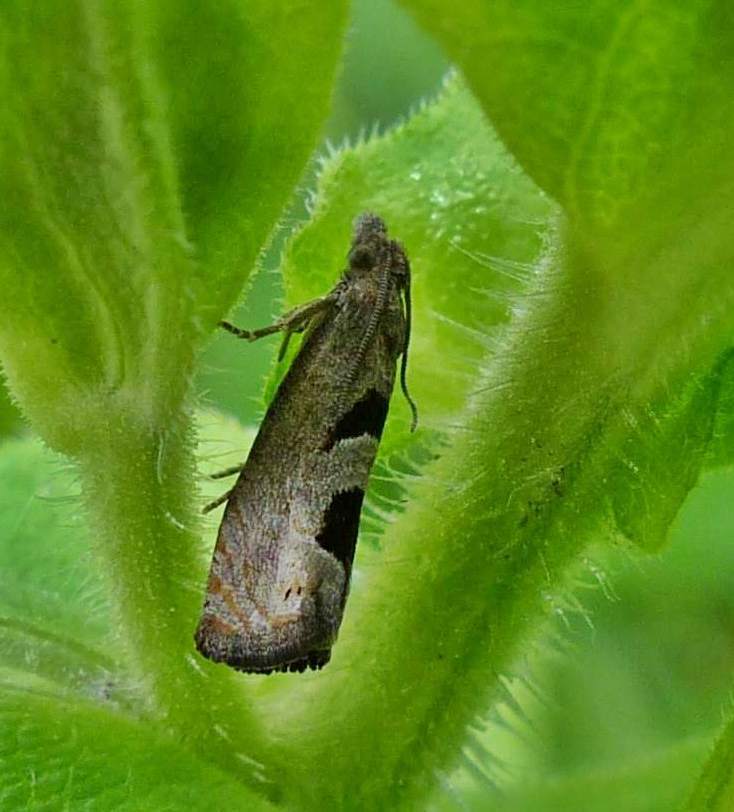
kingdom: Animalia
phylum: Arthropoda
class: Insecta
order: Lepidoptera
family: Tortricidae
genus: Eucosma
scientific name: Eucosma tomonana
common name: Aster-head eucosma moth
